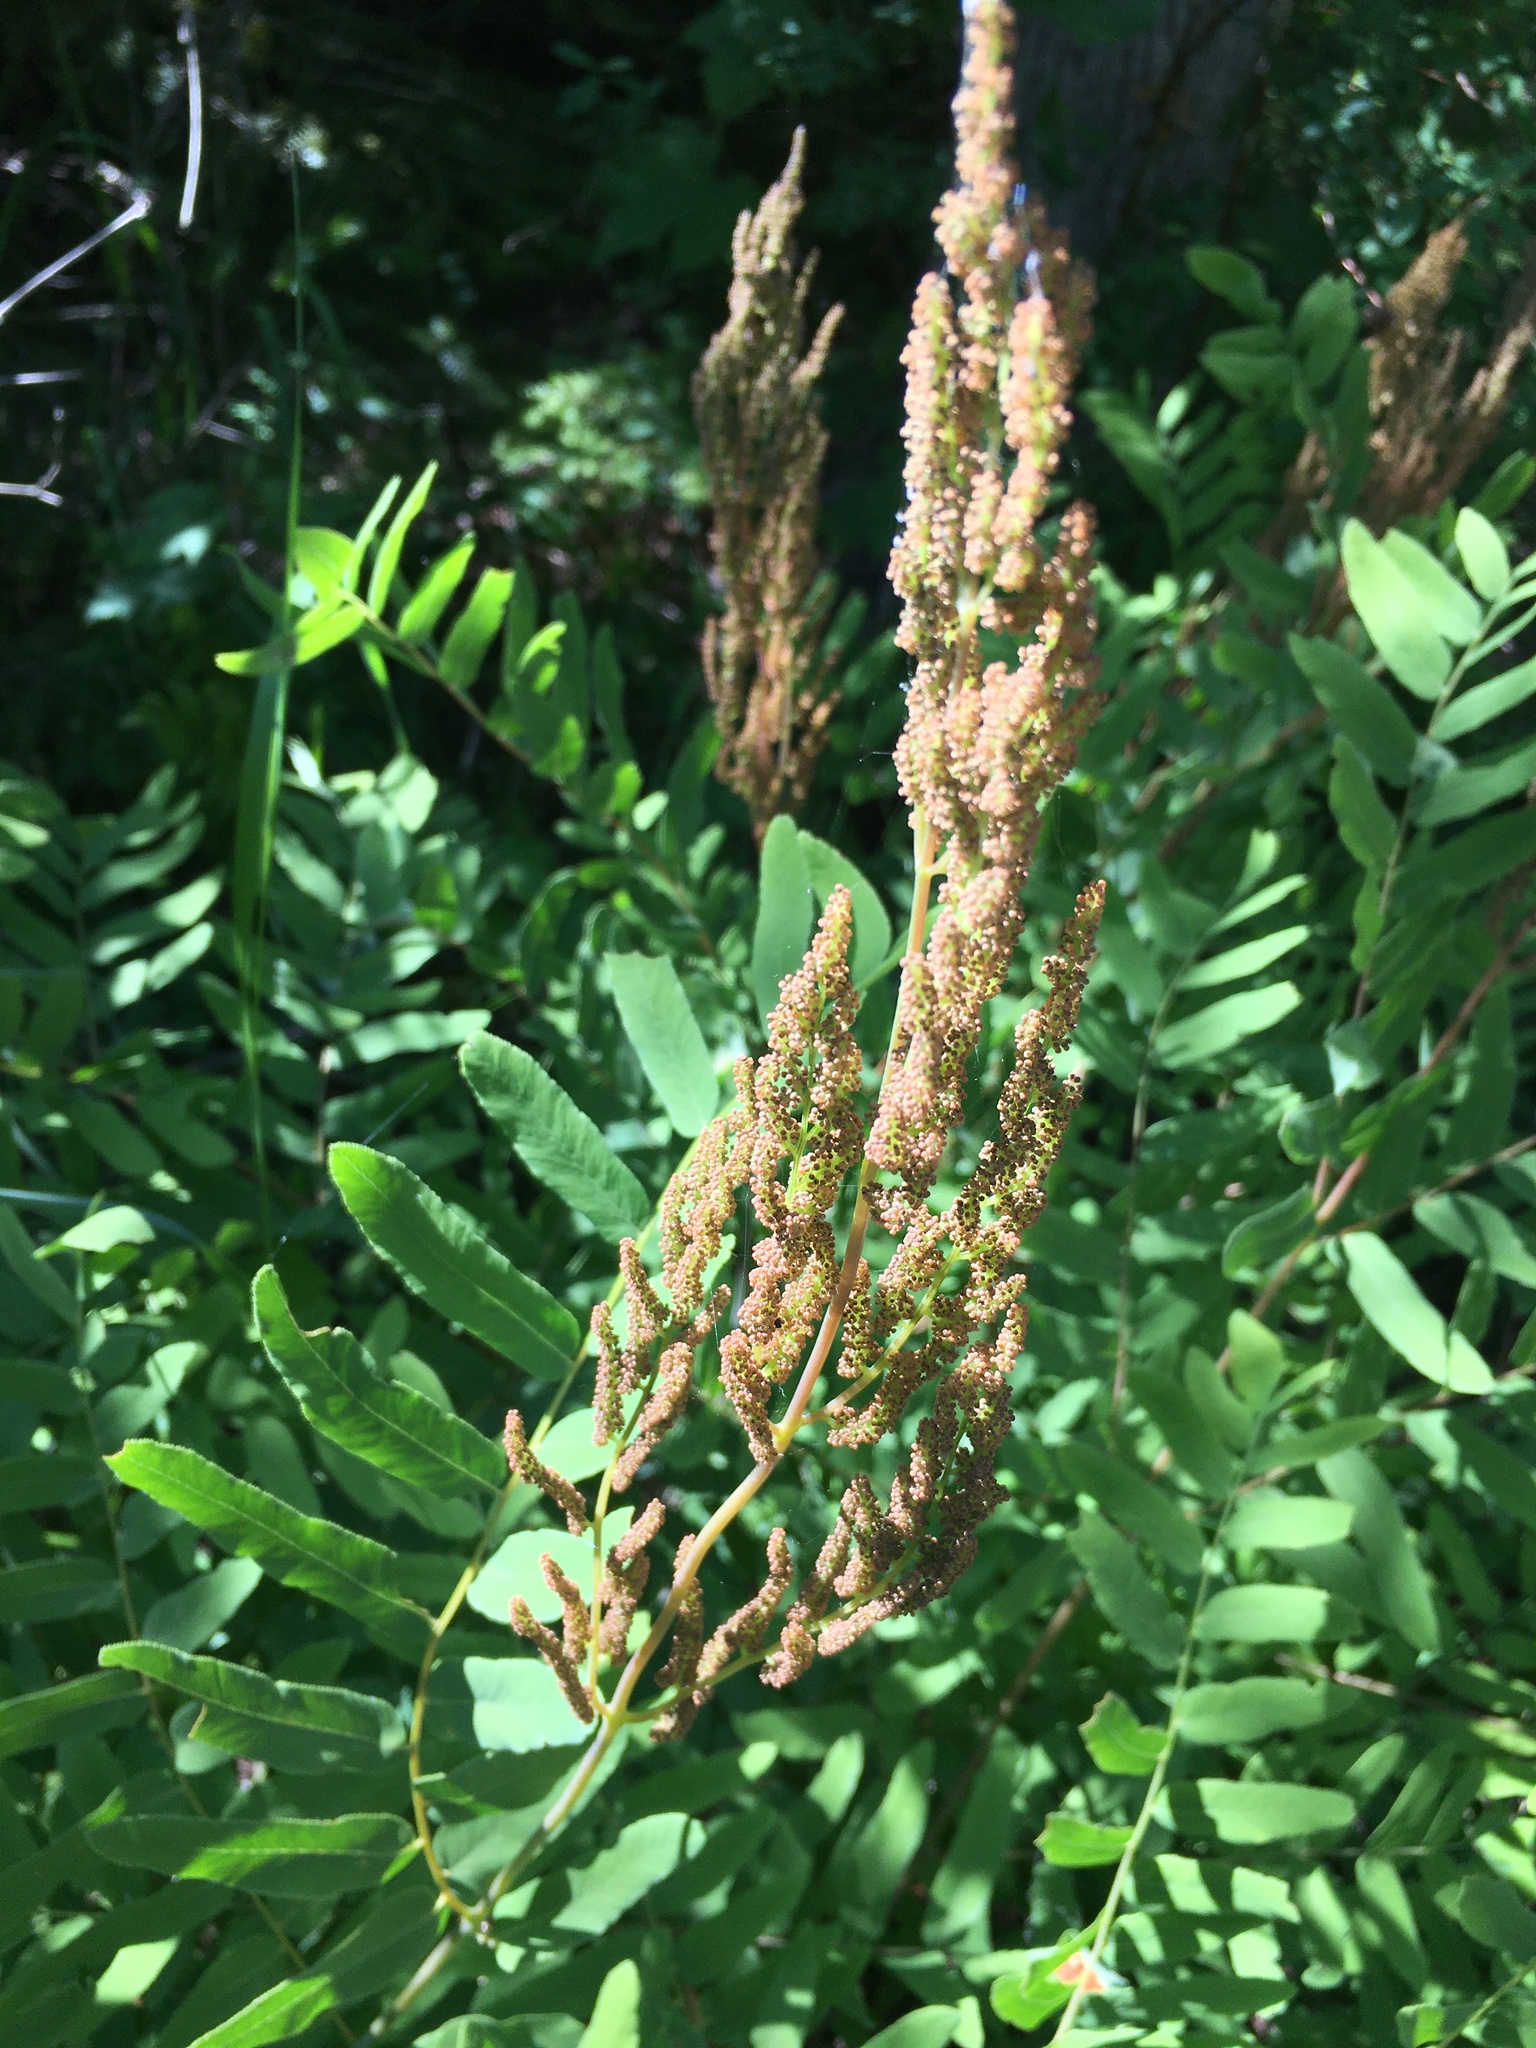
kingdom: Plantae
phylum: Tracheophyta
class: Polypodiopsida
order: Osmundales
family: Osmundaceae
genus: Osmunda
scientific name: Osmunda spectabilis
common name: American royal fern
